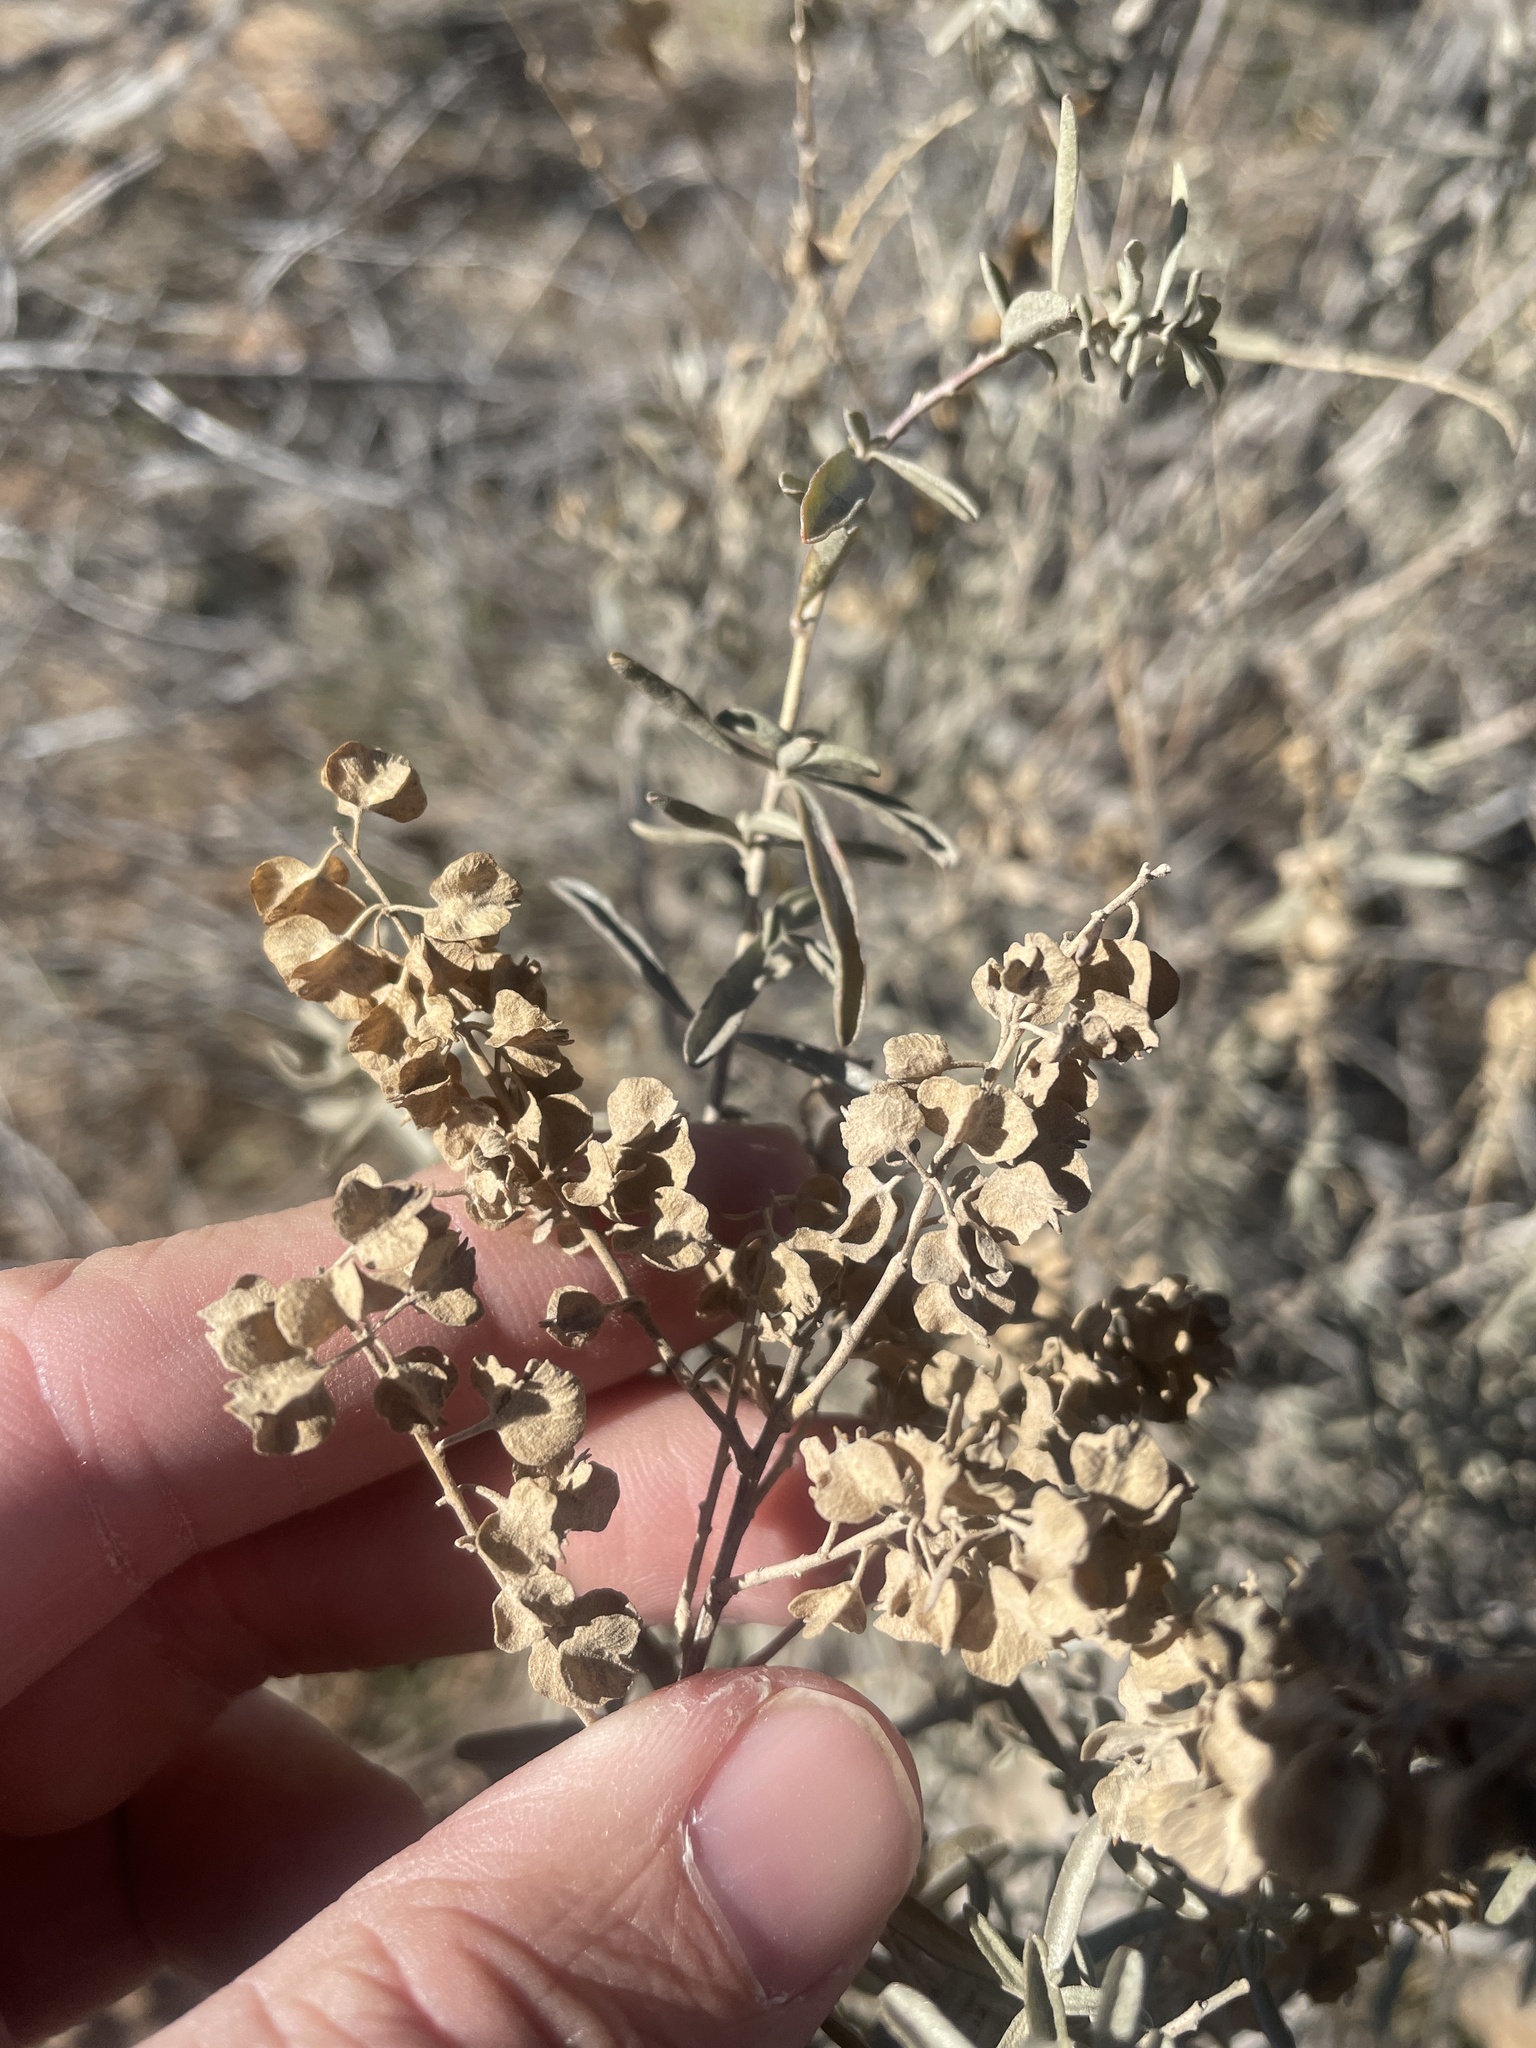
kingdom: Plantae
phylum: Tracheophyta
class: Magnoliopsida
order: Caryophyllales
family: Amaranthaceae
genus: Atriplex
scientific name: Atriplex canescens
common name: Four-wing saltbush
